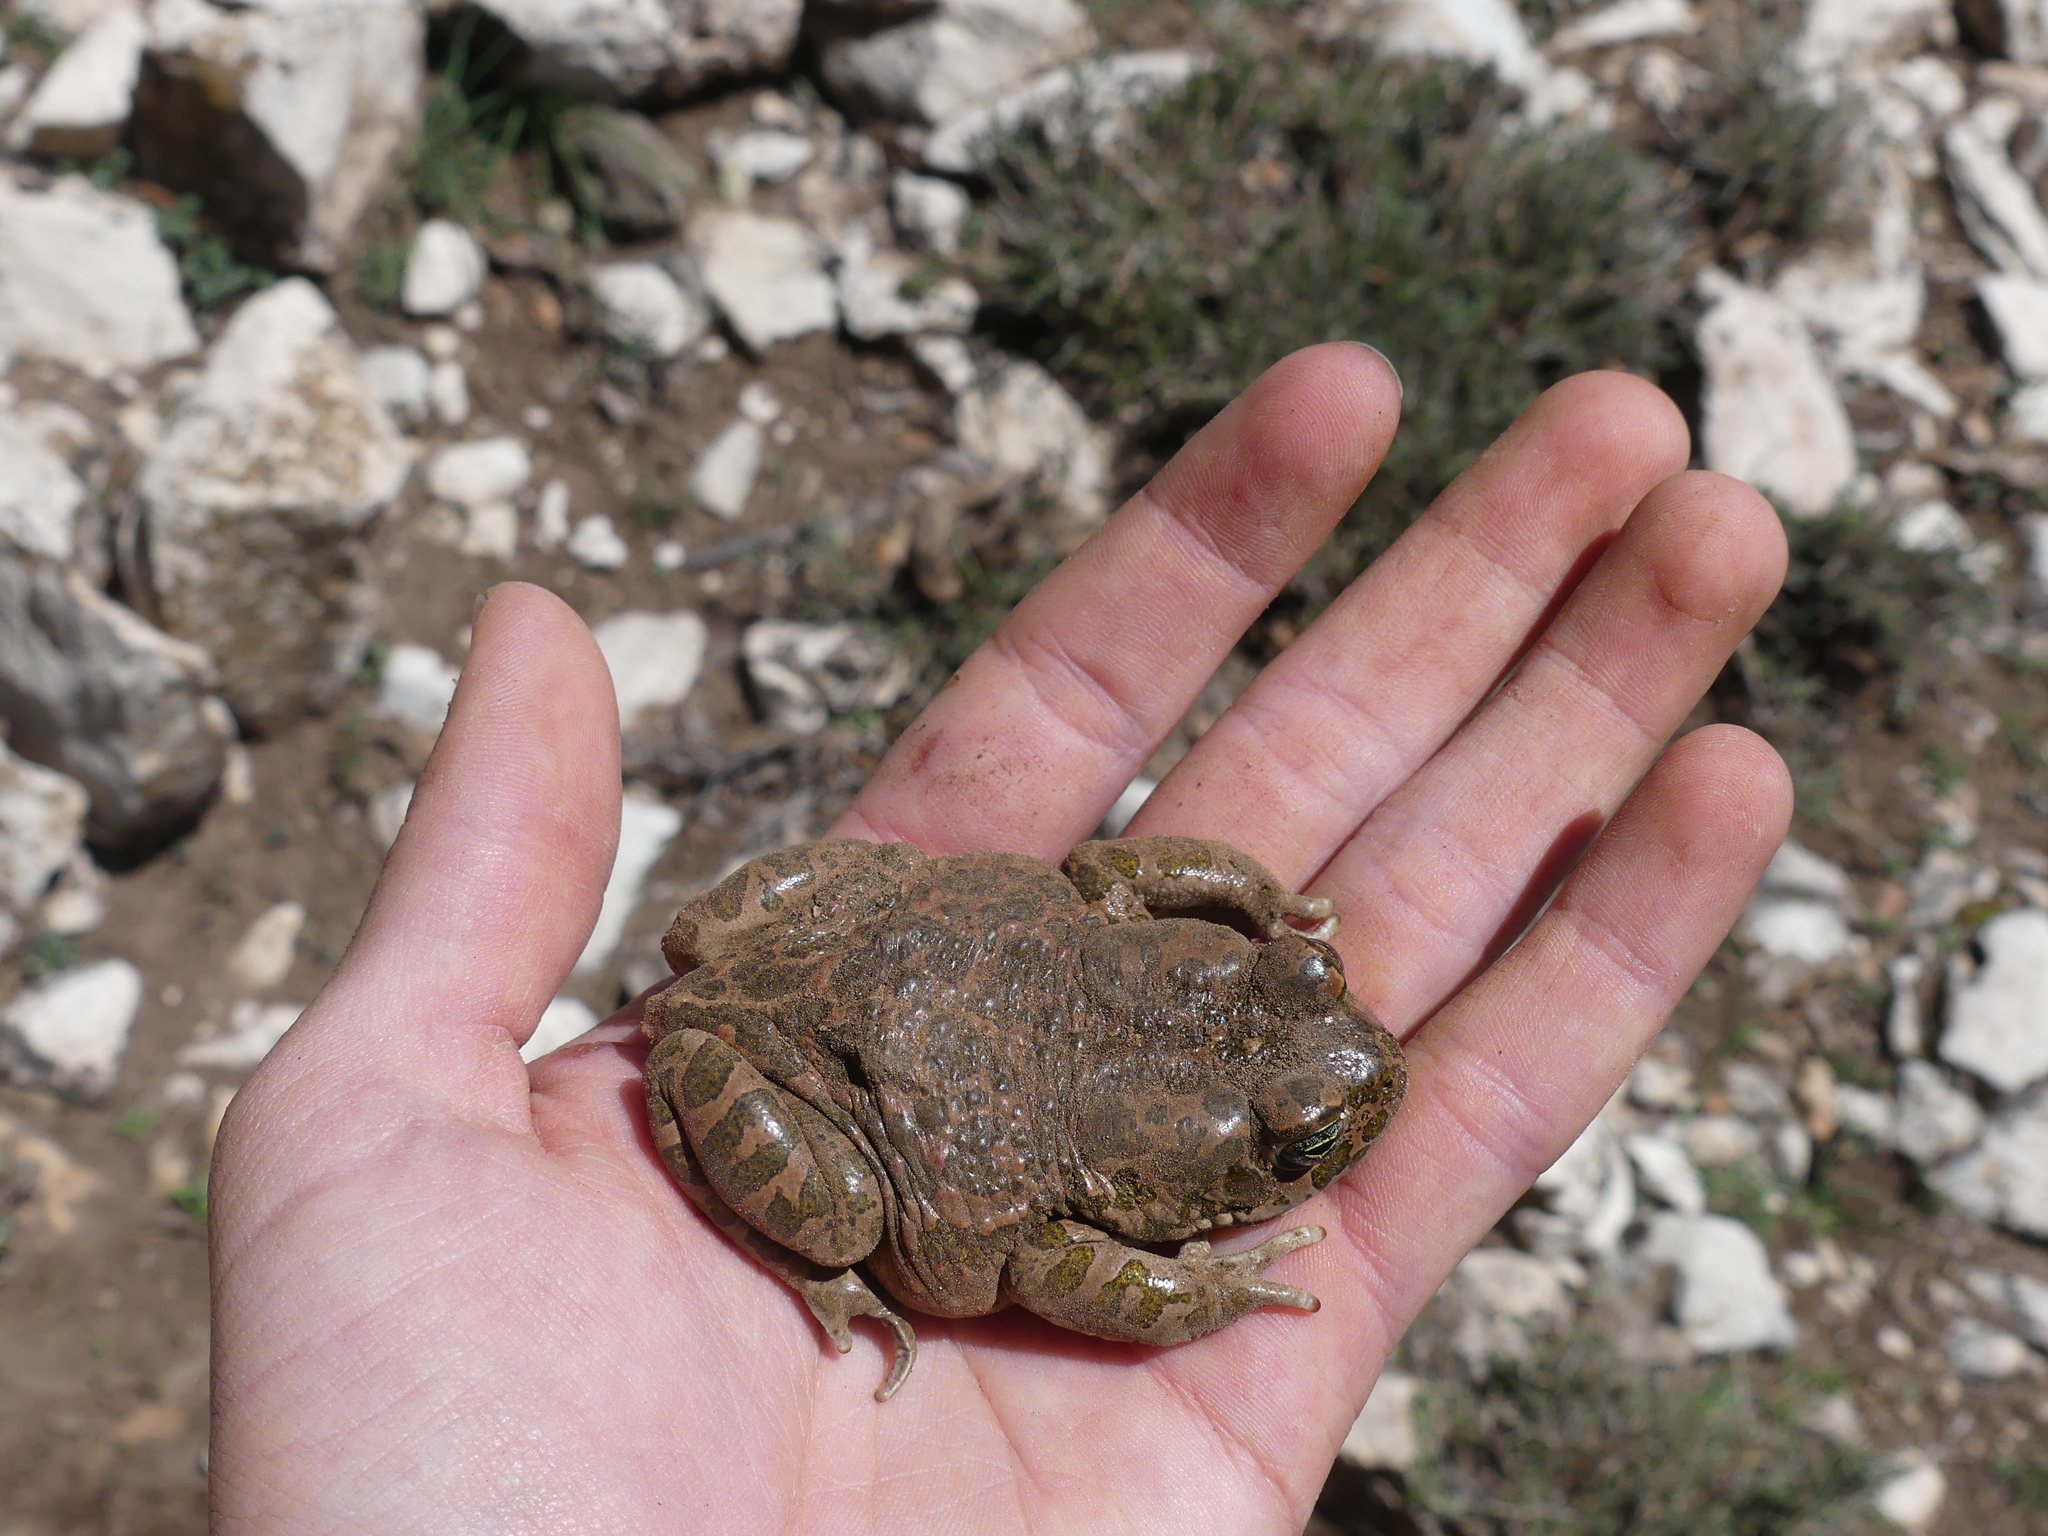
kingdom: Animalia
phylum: Chordata
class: Amphibia
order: Anura
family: Bufonidae
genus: Bufotes
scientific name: Bufotes boulengeri
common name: African green toad
